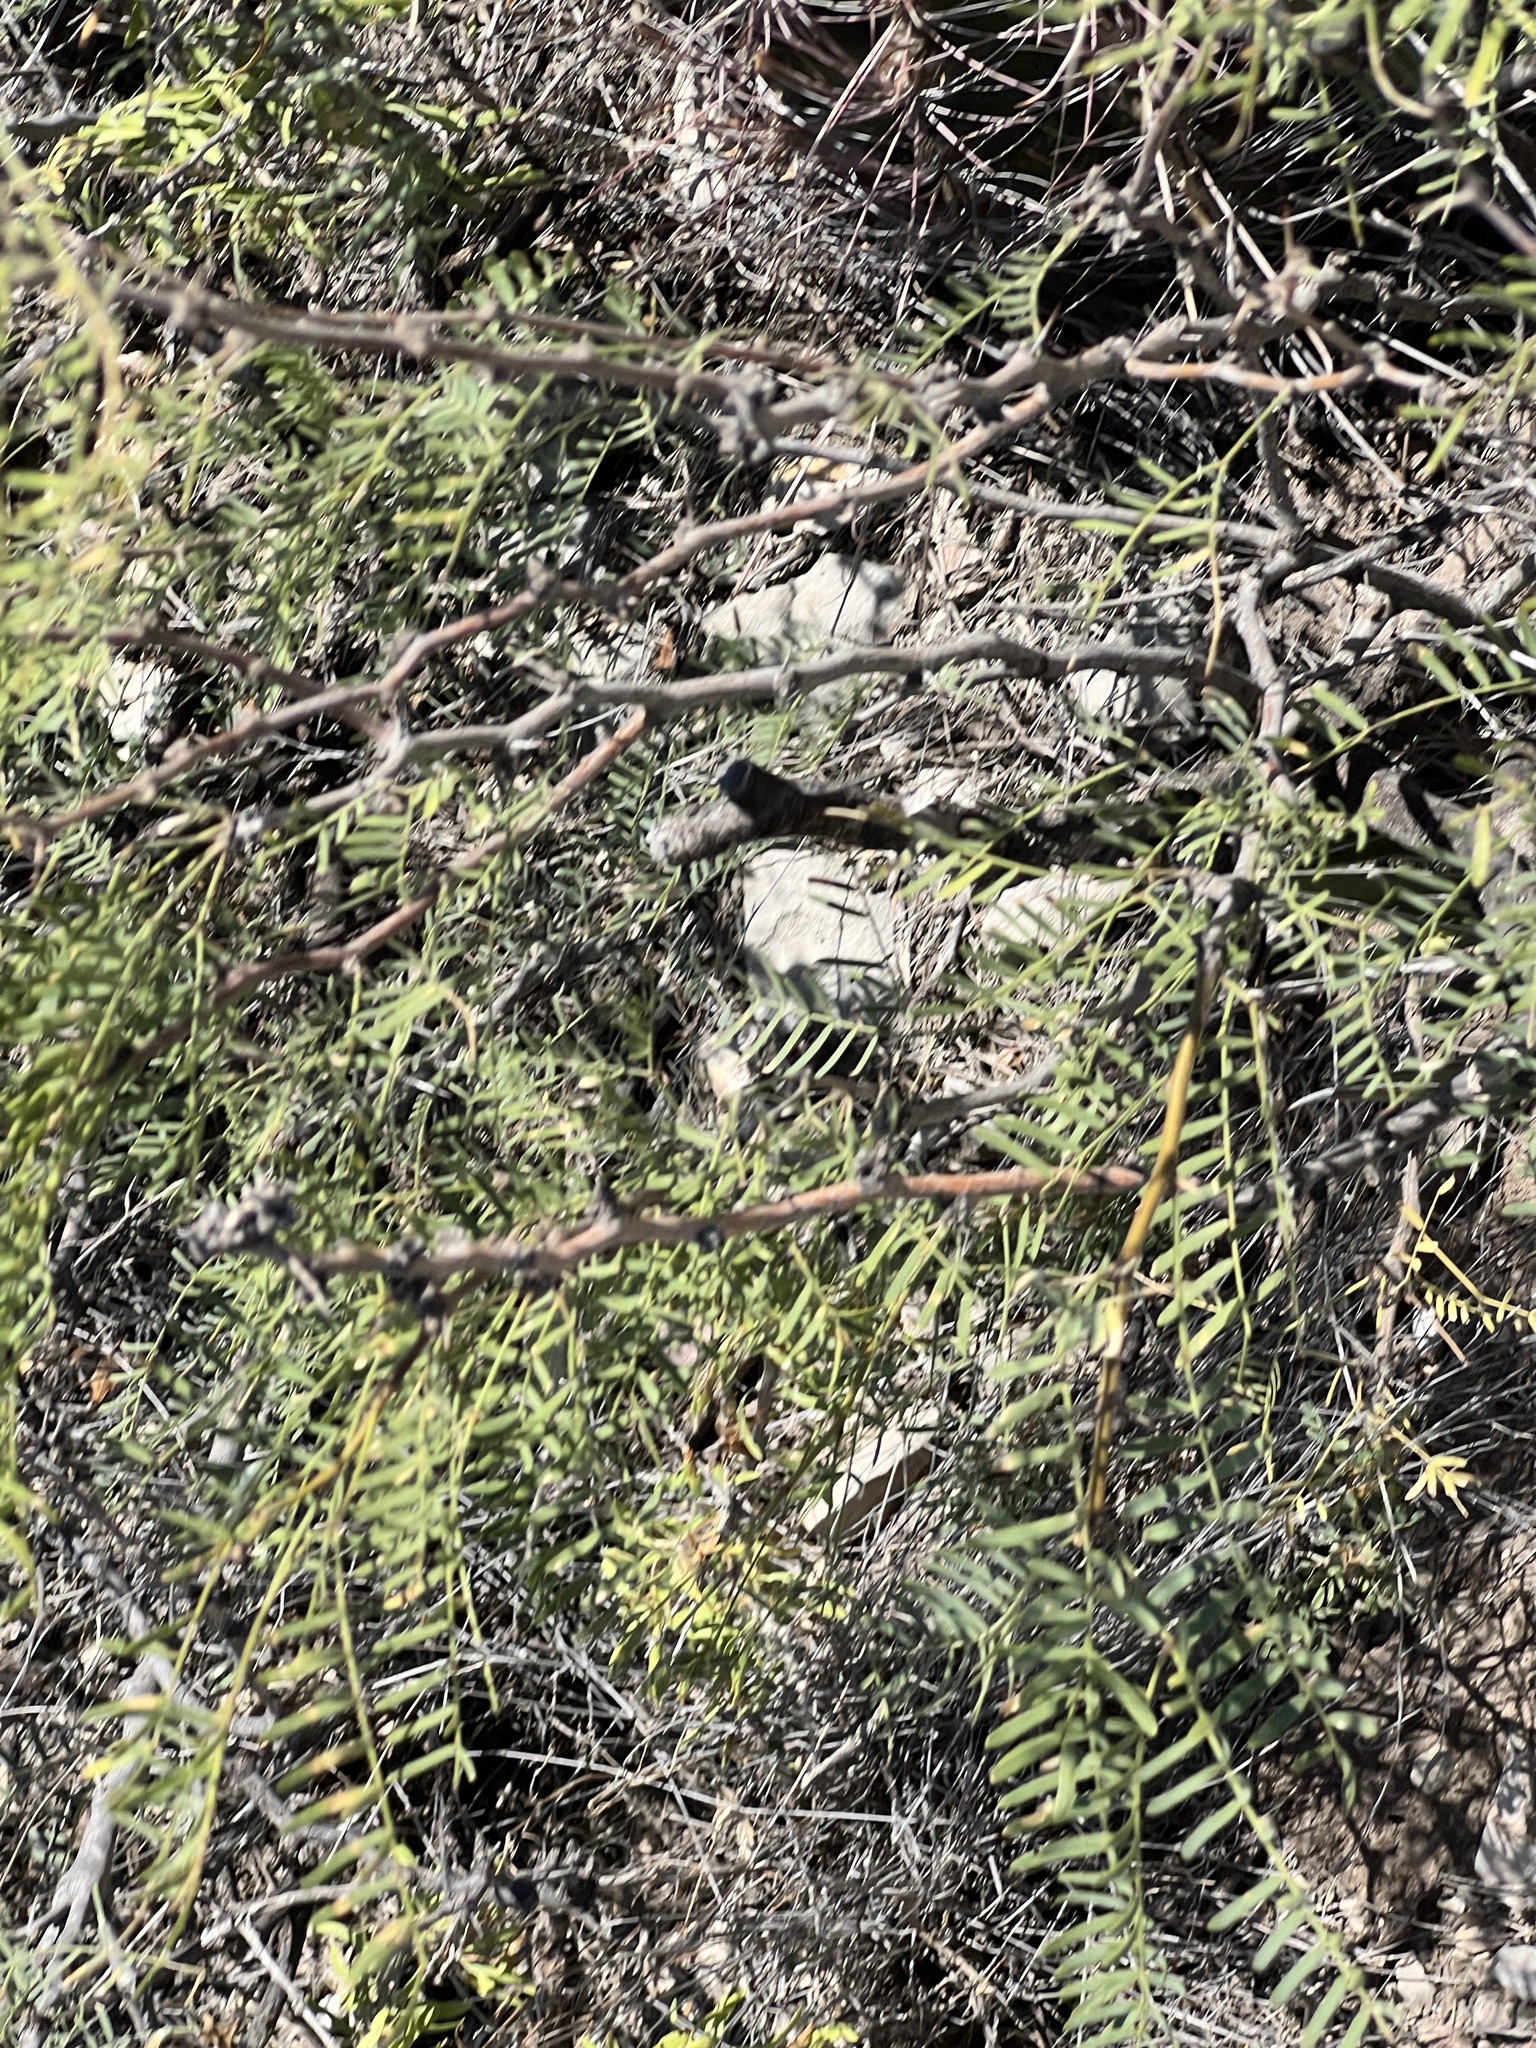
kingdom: Plantae
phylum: Tracheophyta
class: Magnoliopsida
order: Fabales
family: Fabaceae
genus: Prosopis
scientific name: Prosopis glandulosa
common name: Honey mesquite
